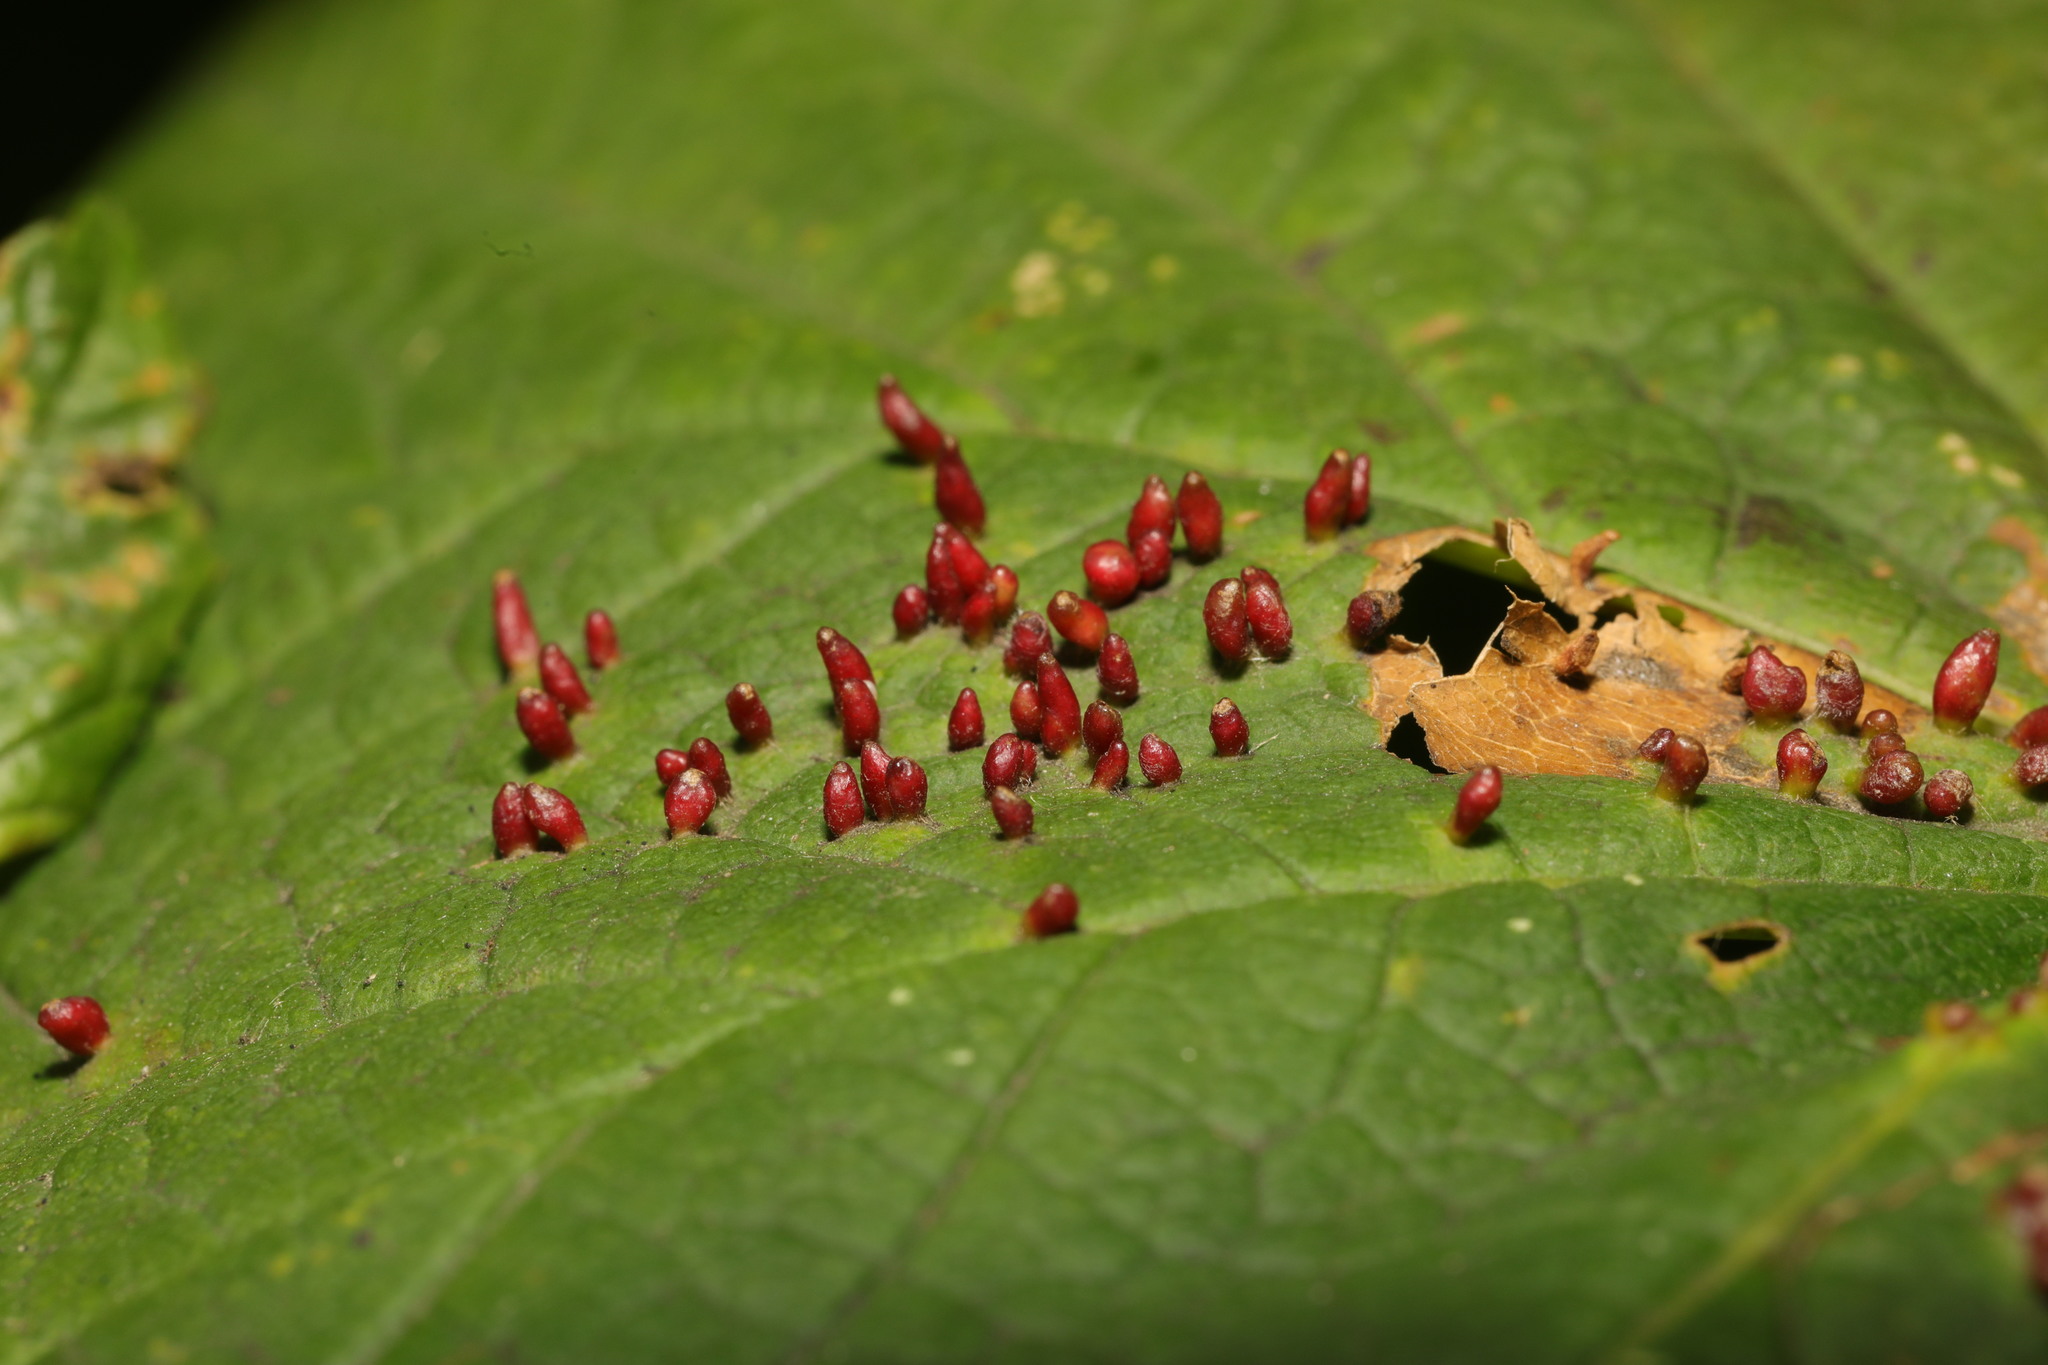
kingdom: Animalia
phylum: Arthropoda
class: Arachnida
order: Trombidiformes
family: Eriophyidae
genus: Aceria
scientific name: Aceria cephaloneus
